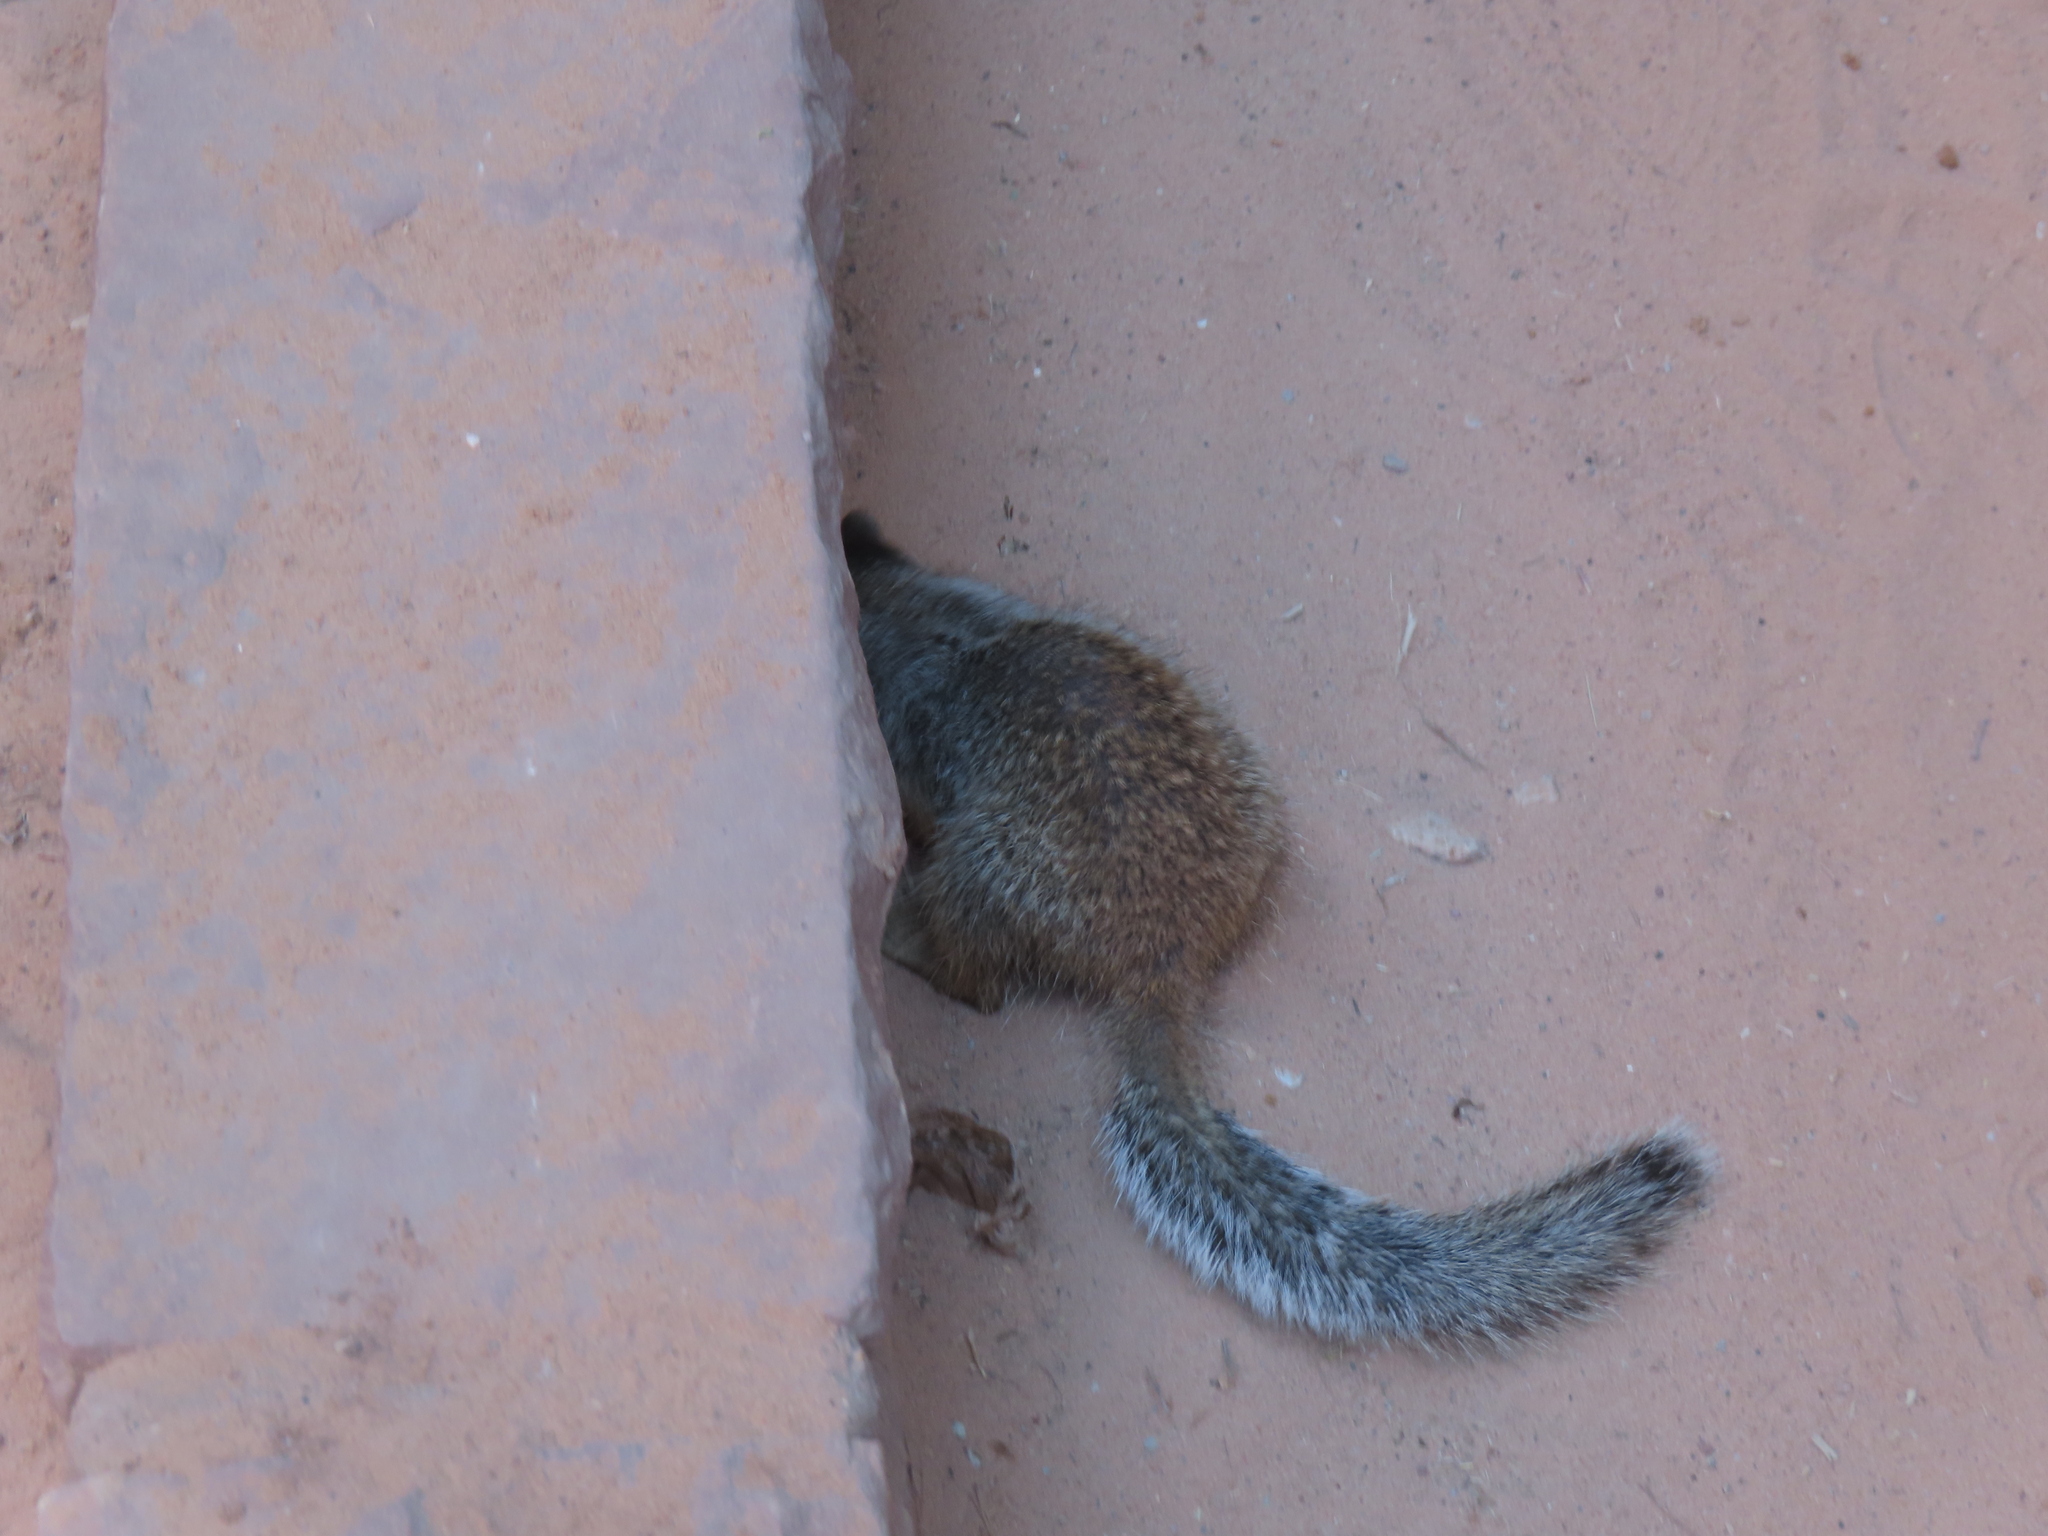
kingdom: Animalia
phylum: Chordata
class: Mammalia
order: Rodentia
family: Sciuridae
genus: Otospermophilus
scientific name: Otospermophilus variegatus
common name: Rock squirrel
